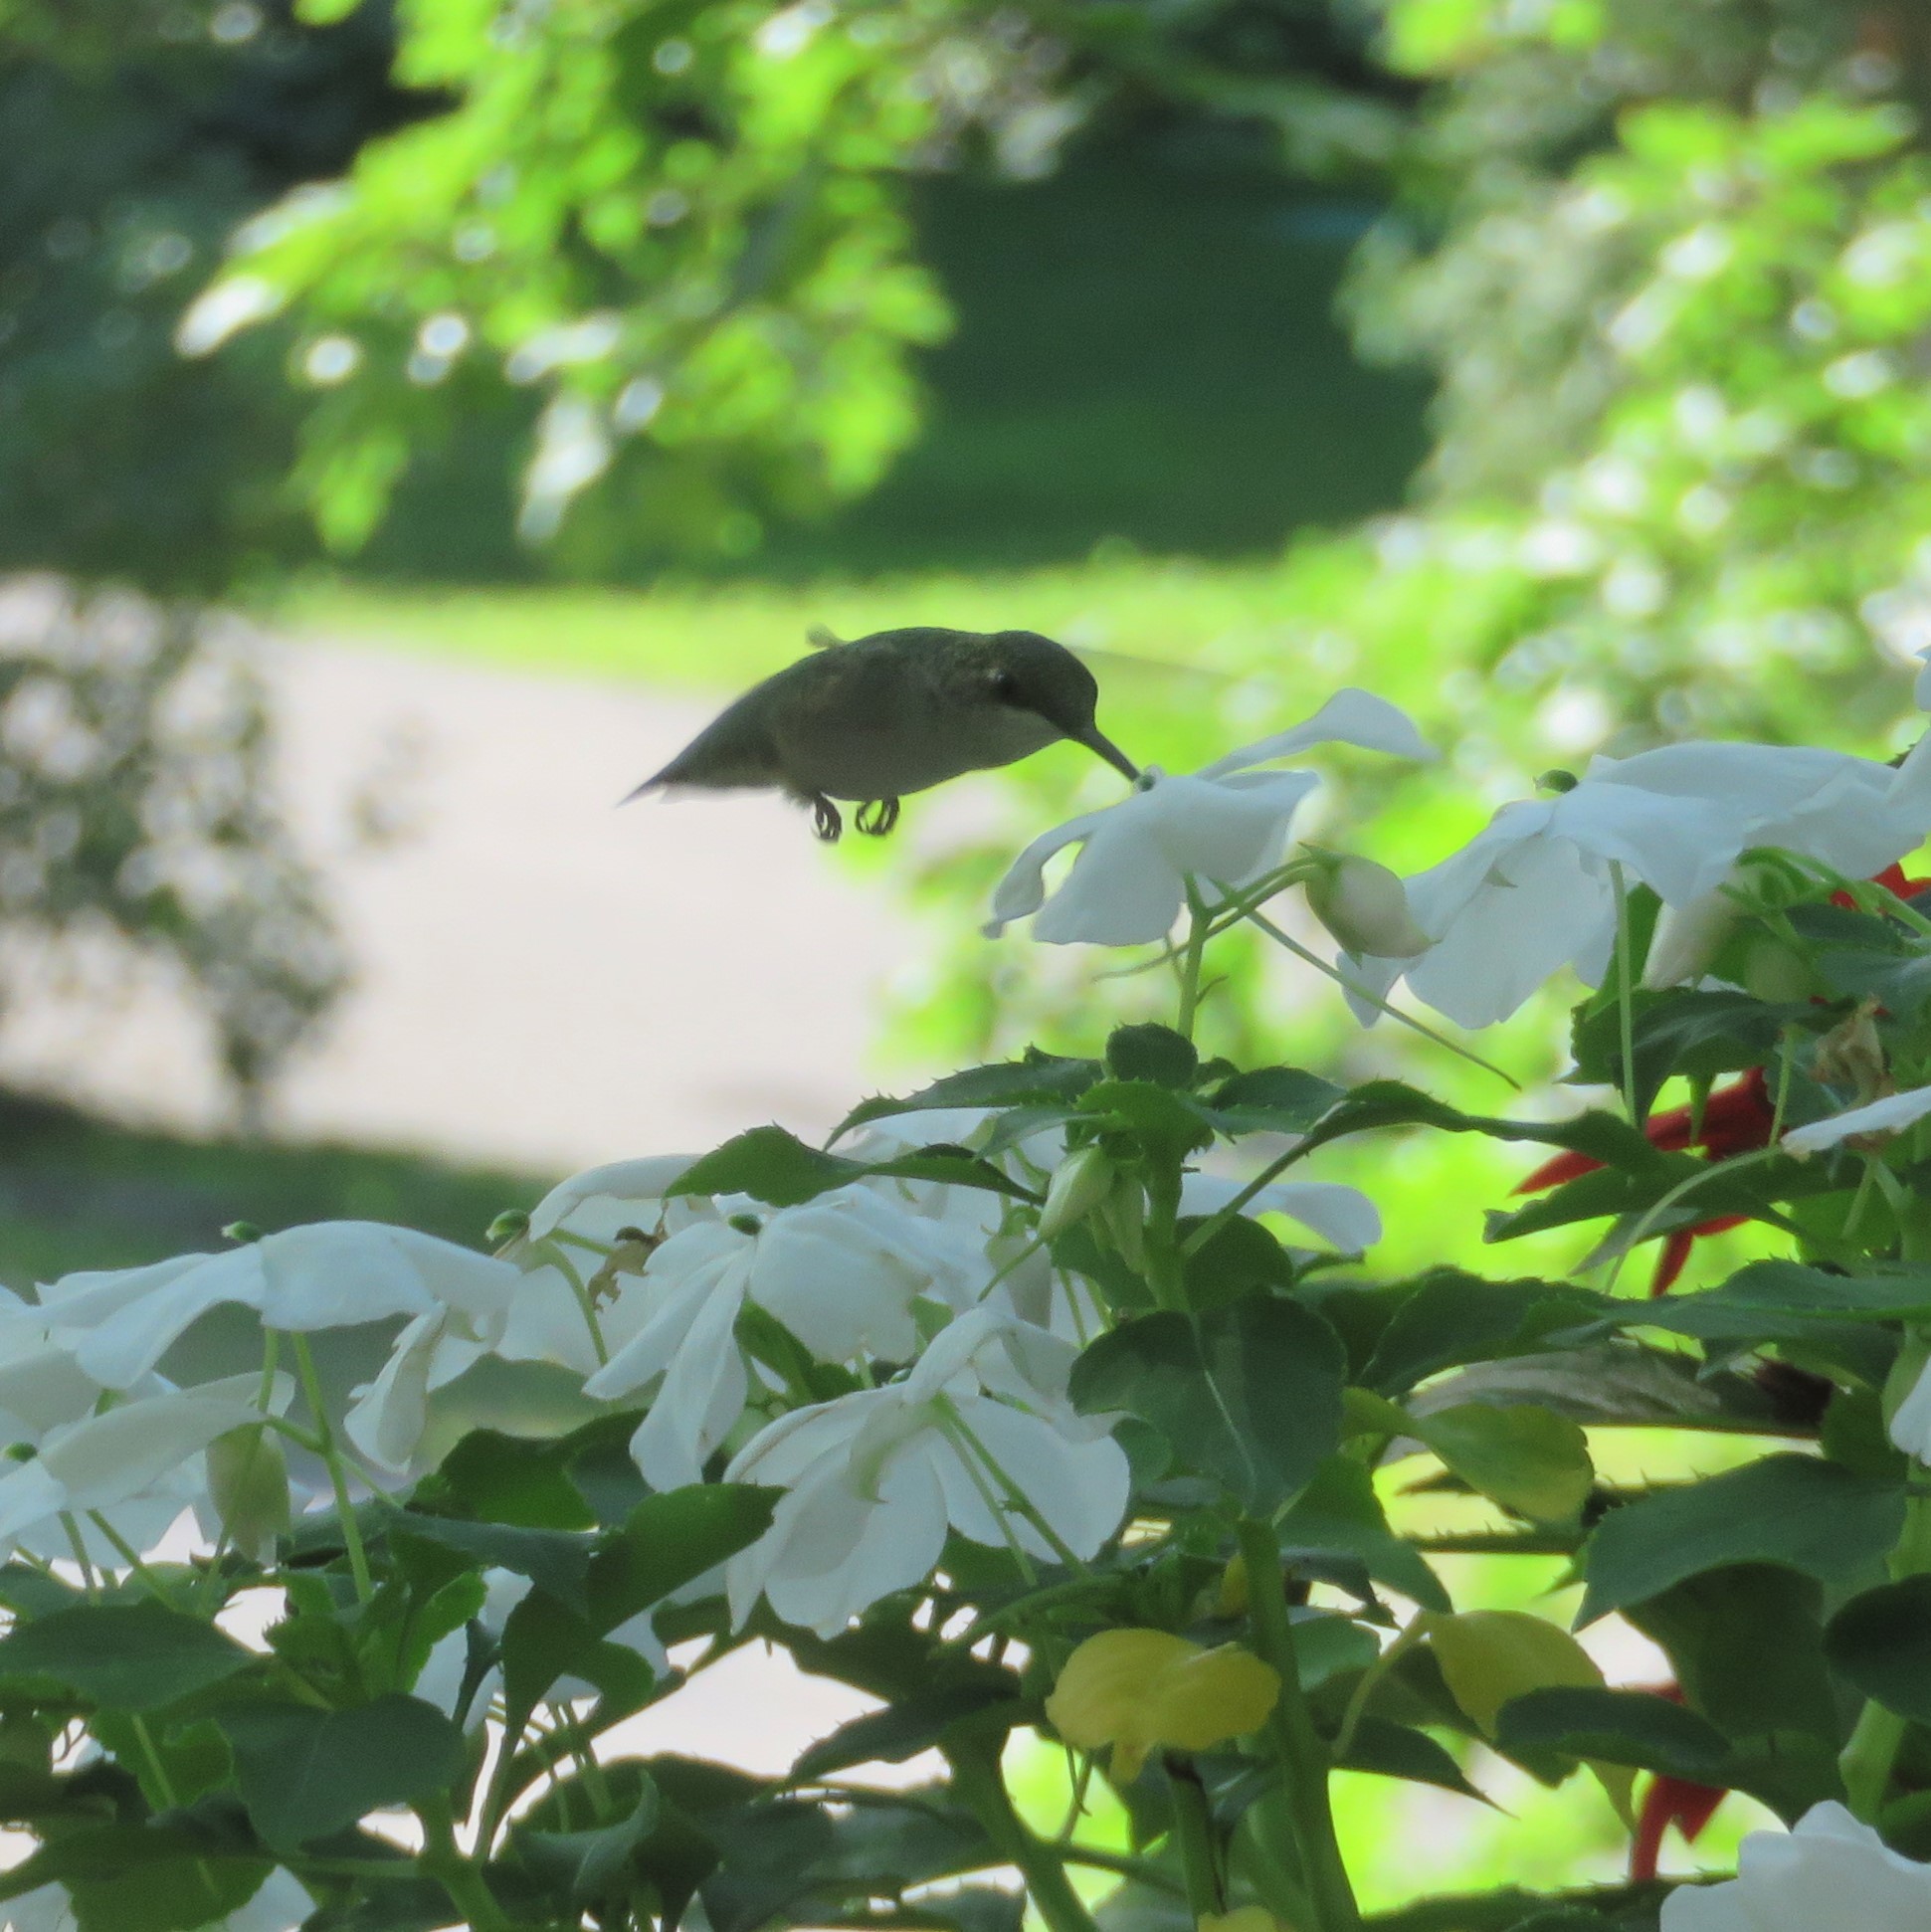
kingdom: Animalia
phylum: Chordata
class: Aves
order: Apodiformes
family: Trochilidae
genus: Archilochus
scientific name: Archilochus colubris
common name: Ruby-throated hummingbird
